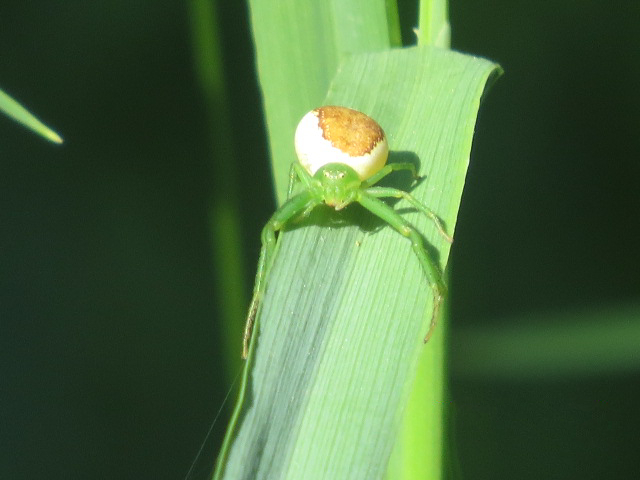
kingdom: Animalia
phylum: Arthropoda
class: Arachnida
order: Araneae
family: Thomisidae
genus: Diaea
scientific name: Diaea dorsata
